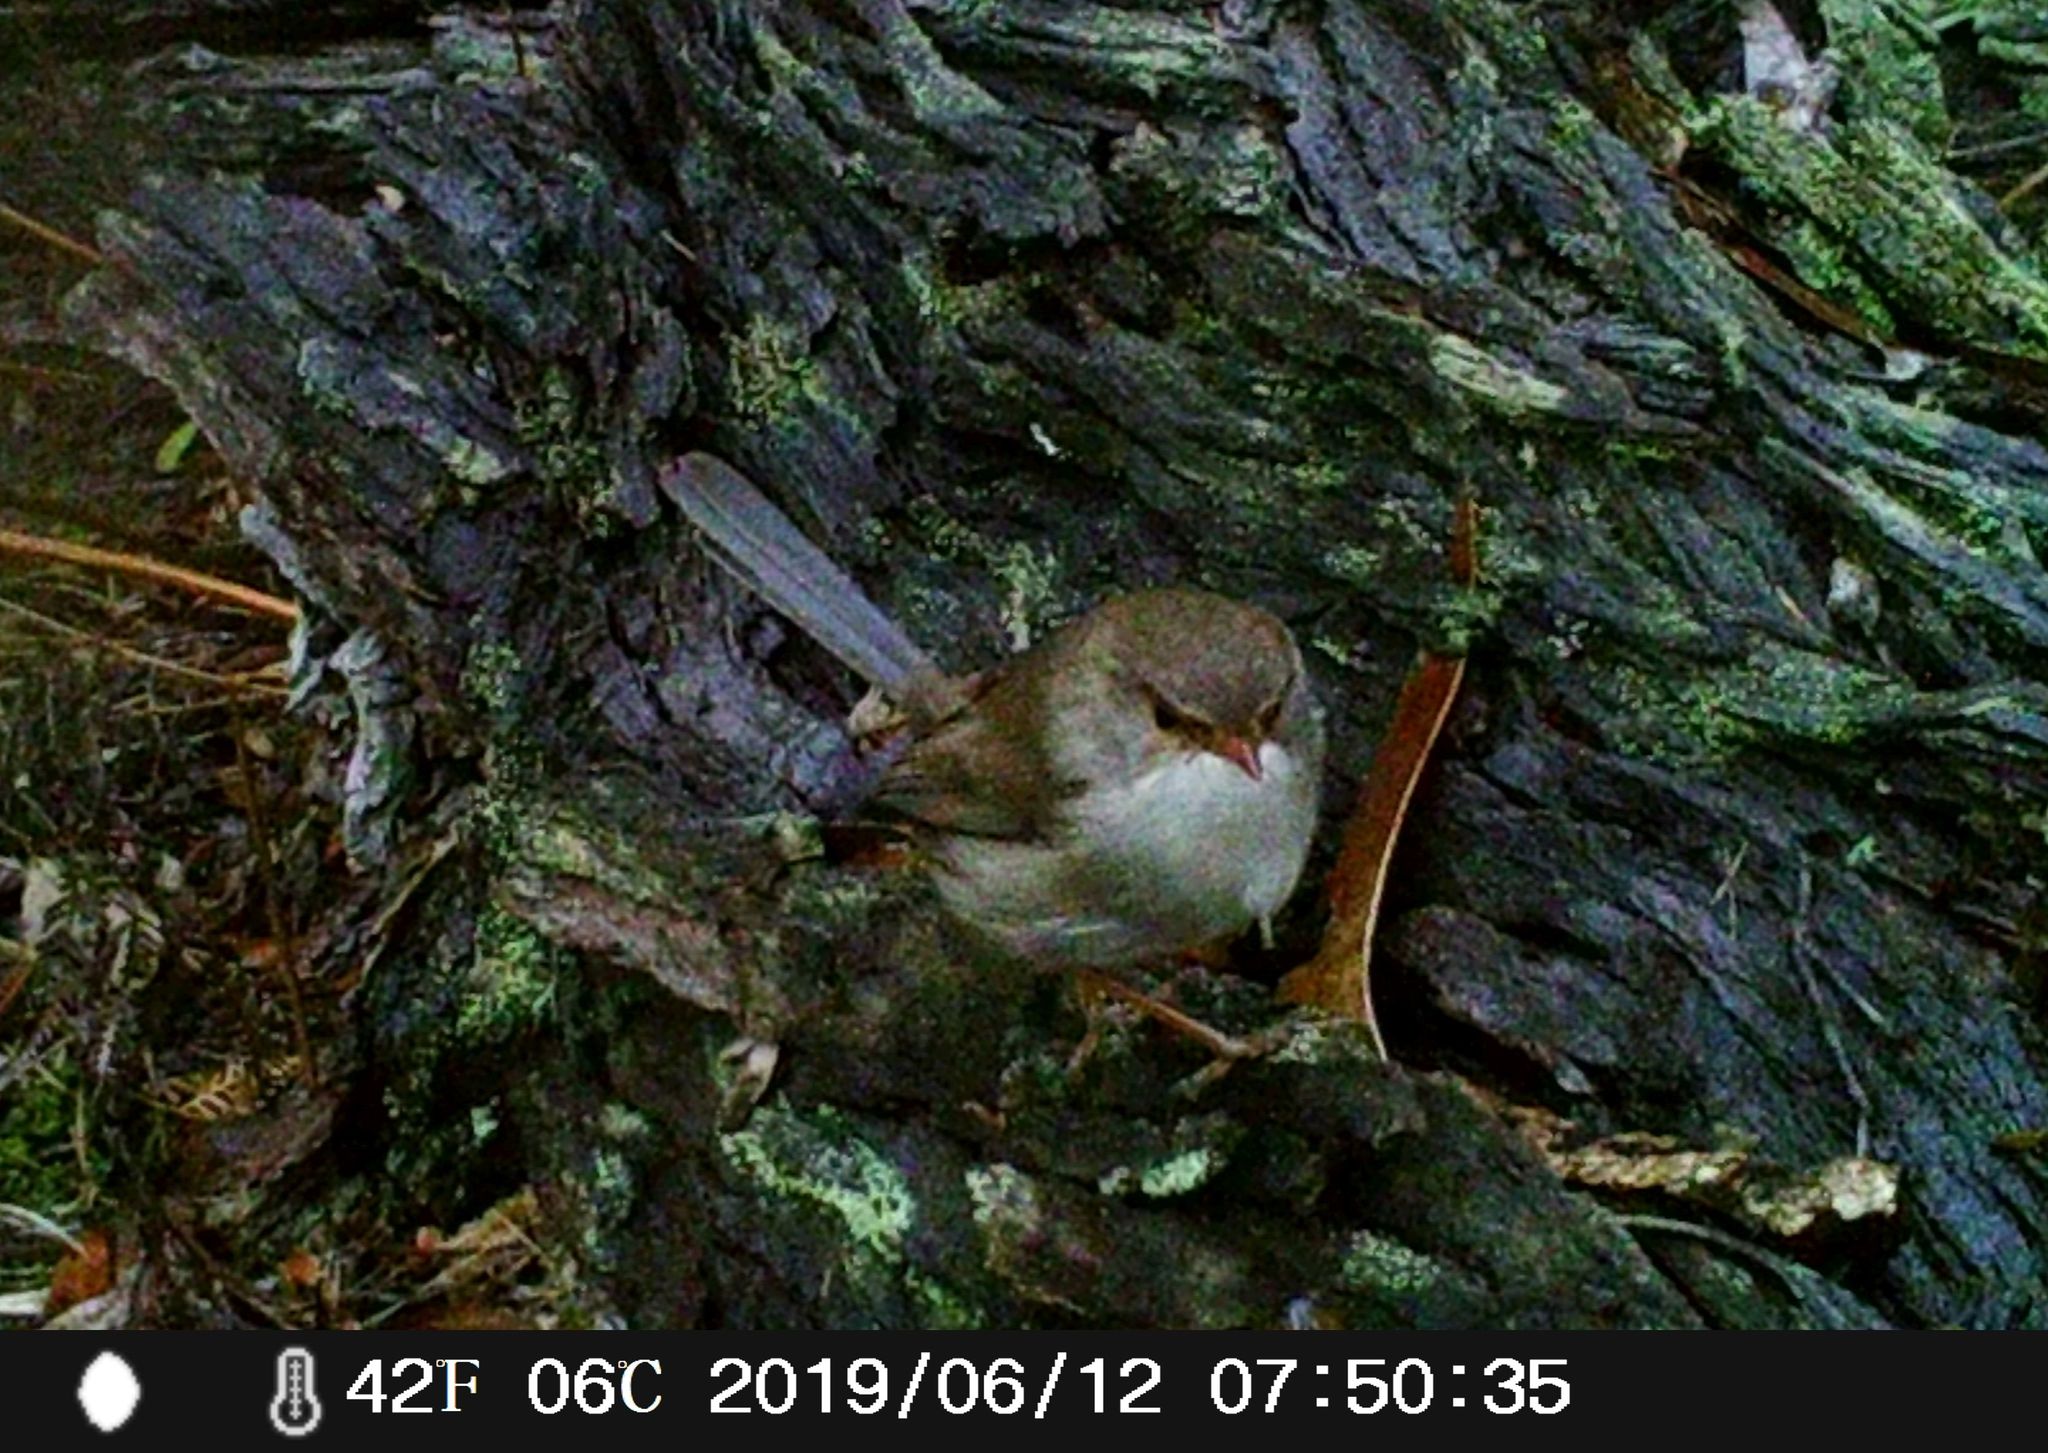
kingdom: Animalia
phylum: Chordata
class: Aves
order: Passeriformes
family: Maluridae
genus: Malurus
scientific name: Malurus cyaneus
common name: Superb fairywren
